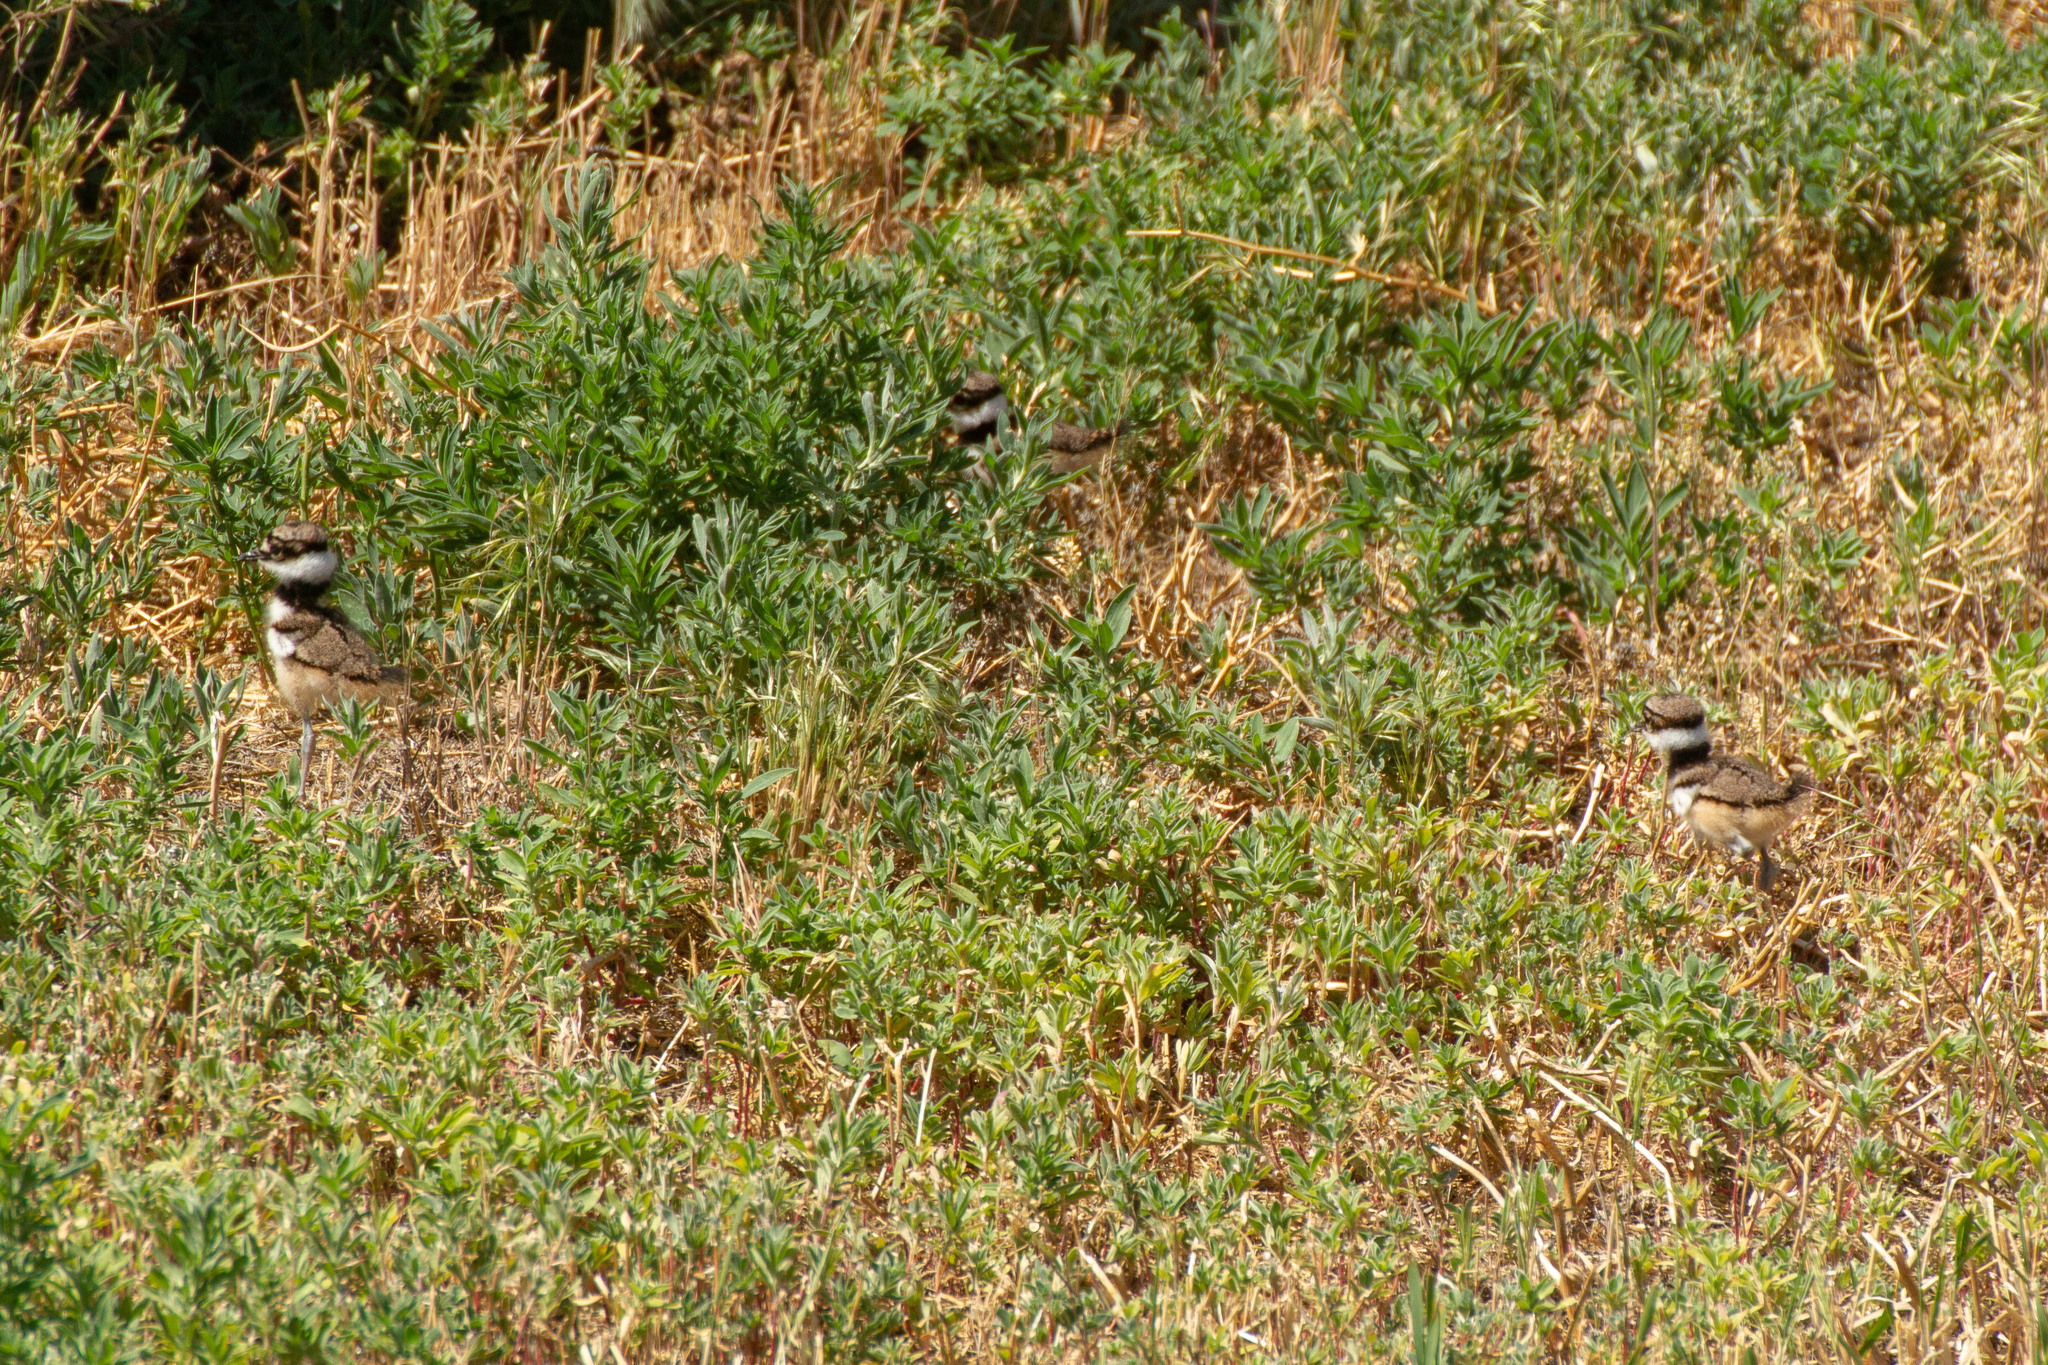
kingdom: Animalia
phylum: Chordata
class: Aves
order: Charadriiformes
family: Charadriidae
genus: Charadrius
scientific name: Charadrius vociferus
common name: Killdeer
